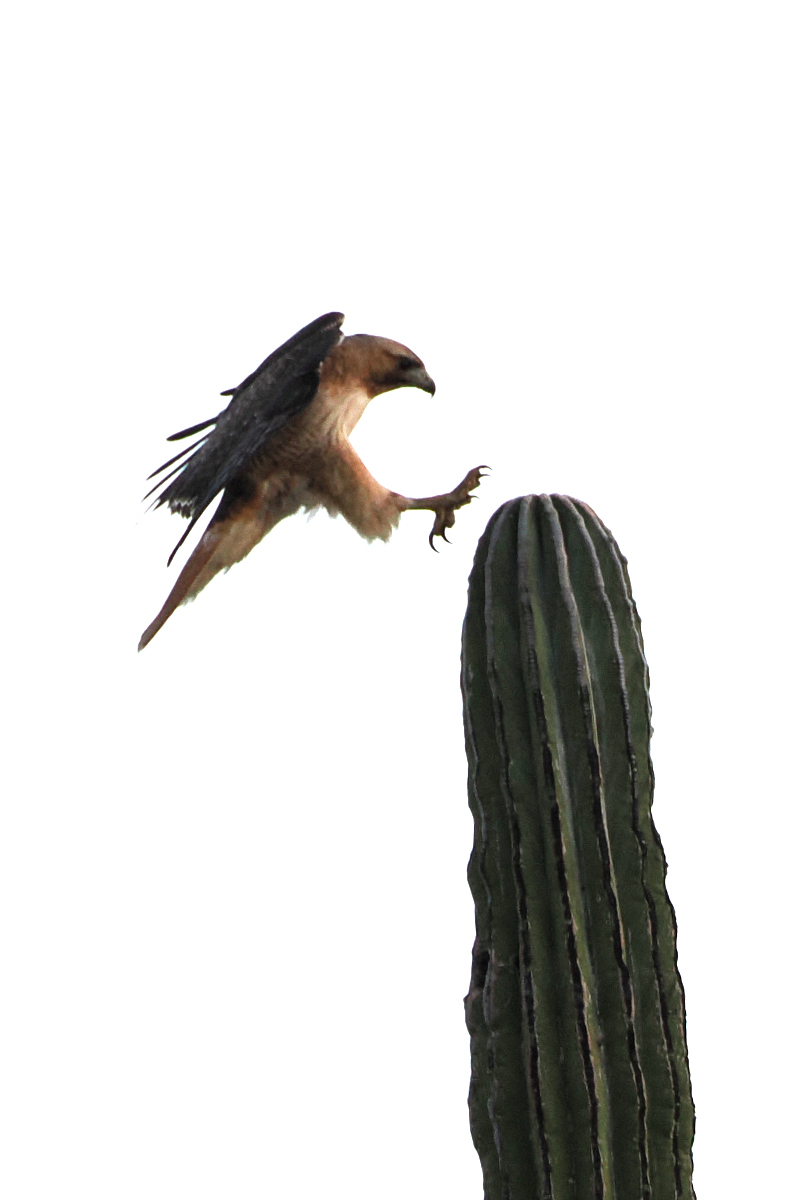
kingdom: Animalia
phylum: Chordata
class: Aves
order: Accipitriformes
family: Accipitridae
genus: Buteo
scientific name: Buteo jamaicensis
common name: Red-tailed hawk
